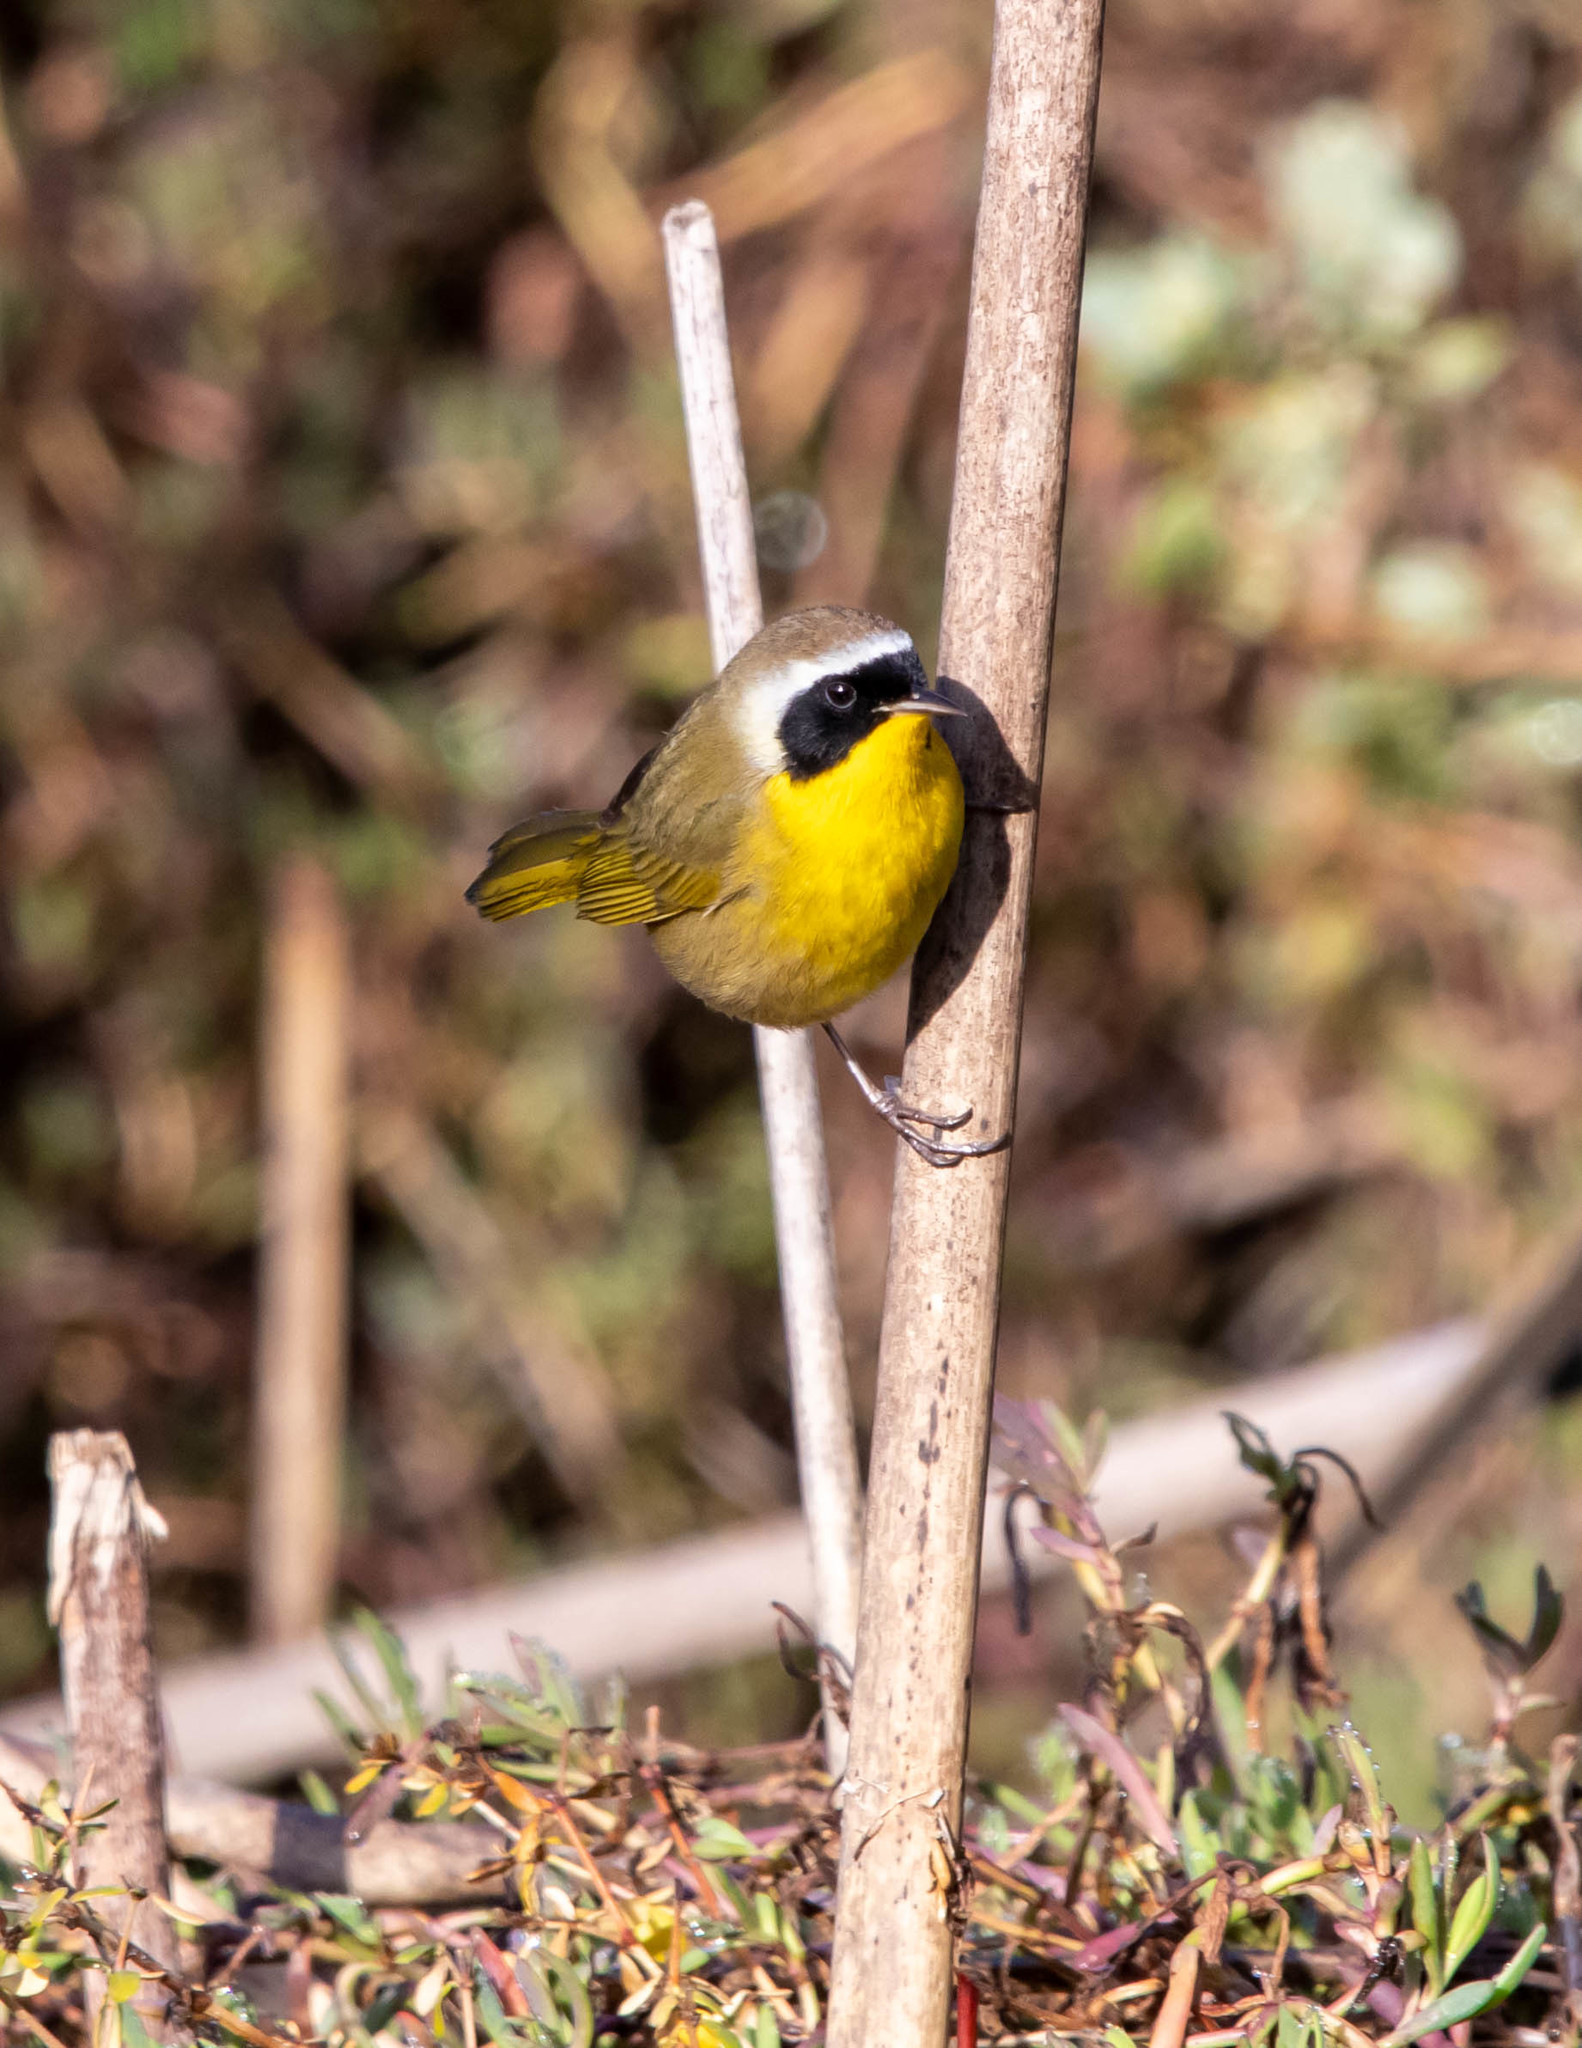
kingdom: Animalia
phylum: Chordata
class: Aves
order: Passeriformes
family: Parulidae
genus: Geothlypis
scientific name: Geothlypis trichas
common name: Common yellowthroat
